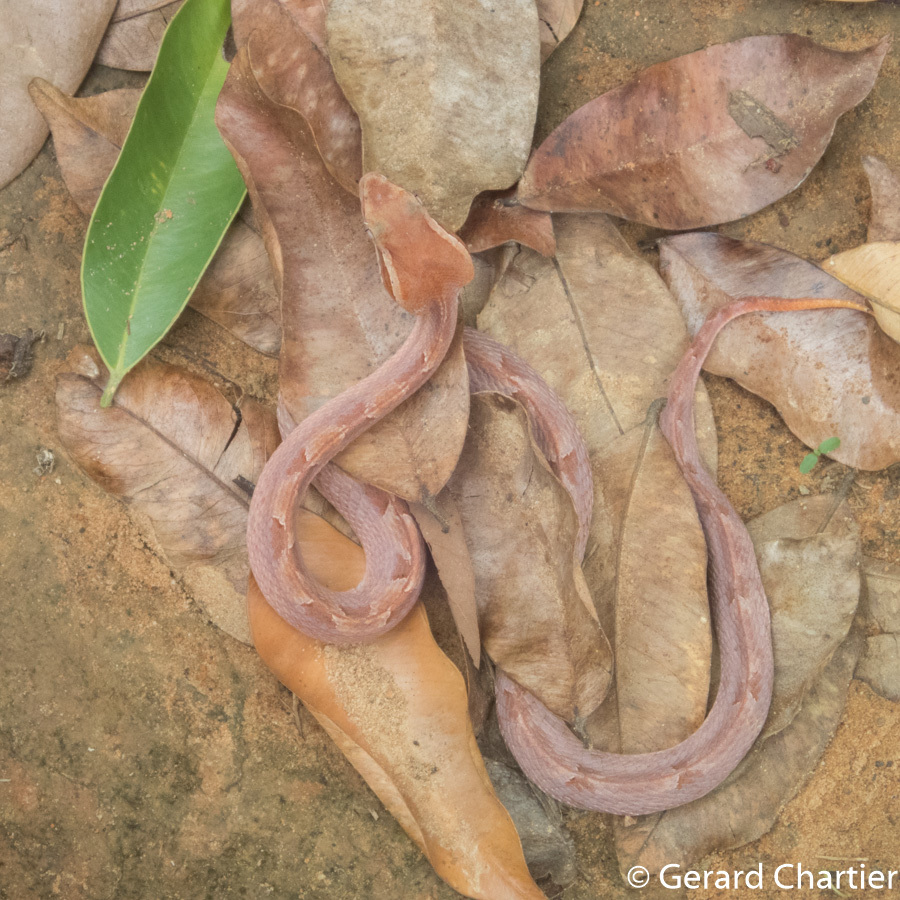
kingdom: Animalia
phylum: Chordata
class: Squamata
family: Viperidae
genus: Calloselasma
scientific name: Calloselasma rhodostoma
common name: Malayan pit viper
